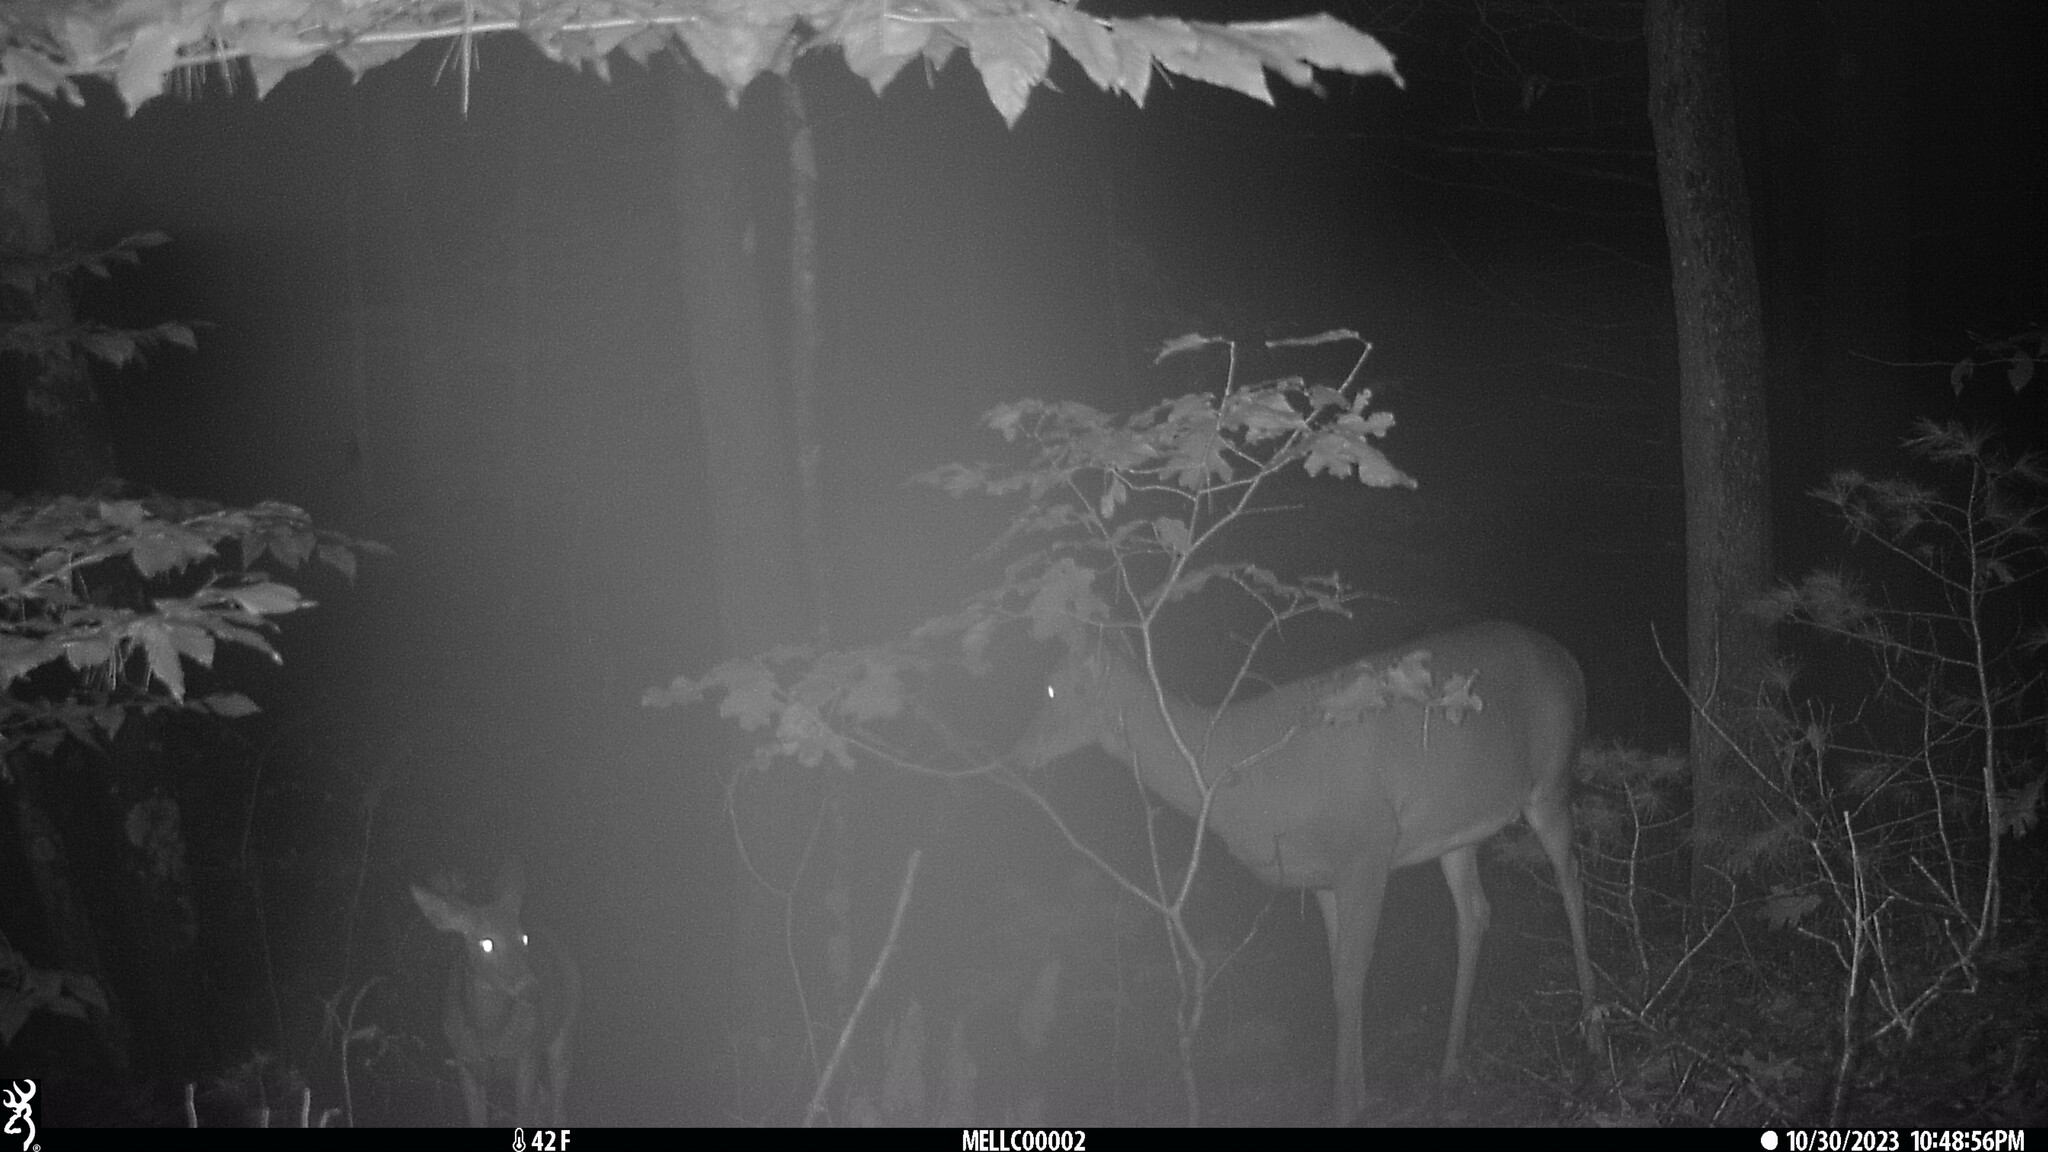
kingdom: Animalia
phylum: Chordata
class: Mammalia
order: Artiodactyla
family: Cervidae
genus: Odocoileus
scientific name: Odocoileus virginianus
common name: White-tailed deer
